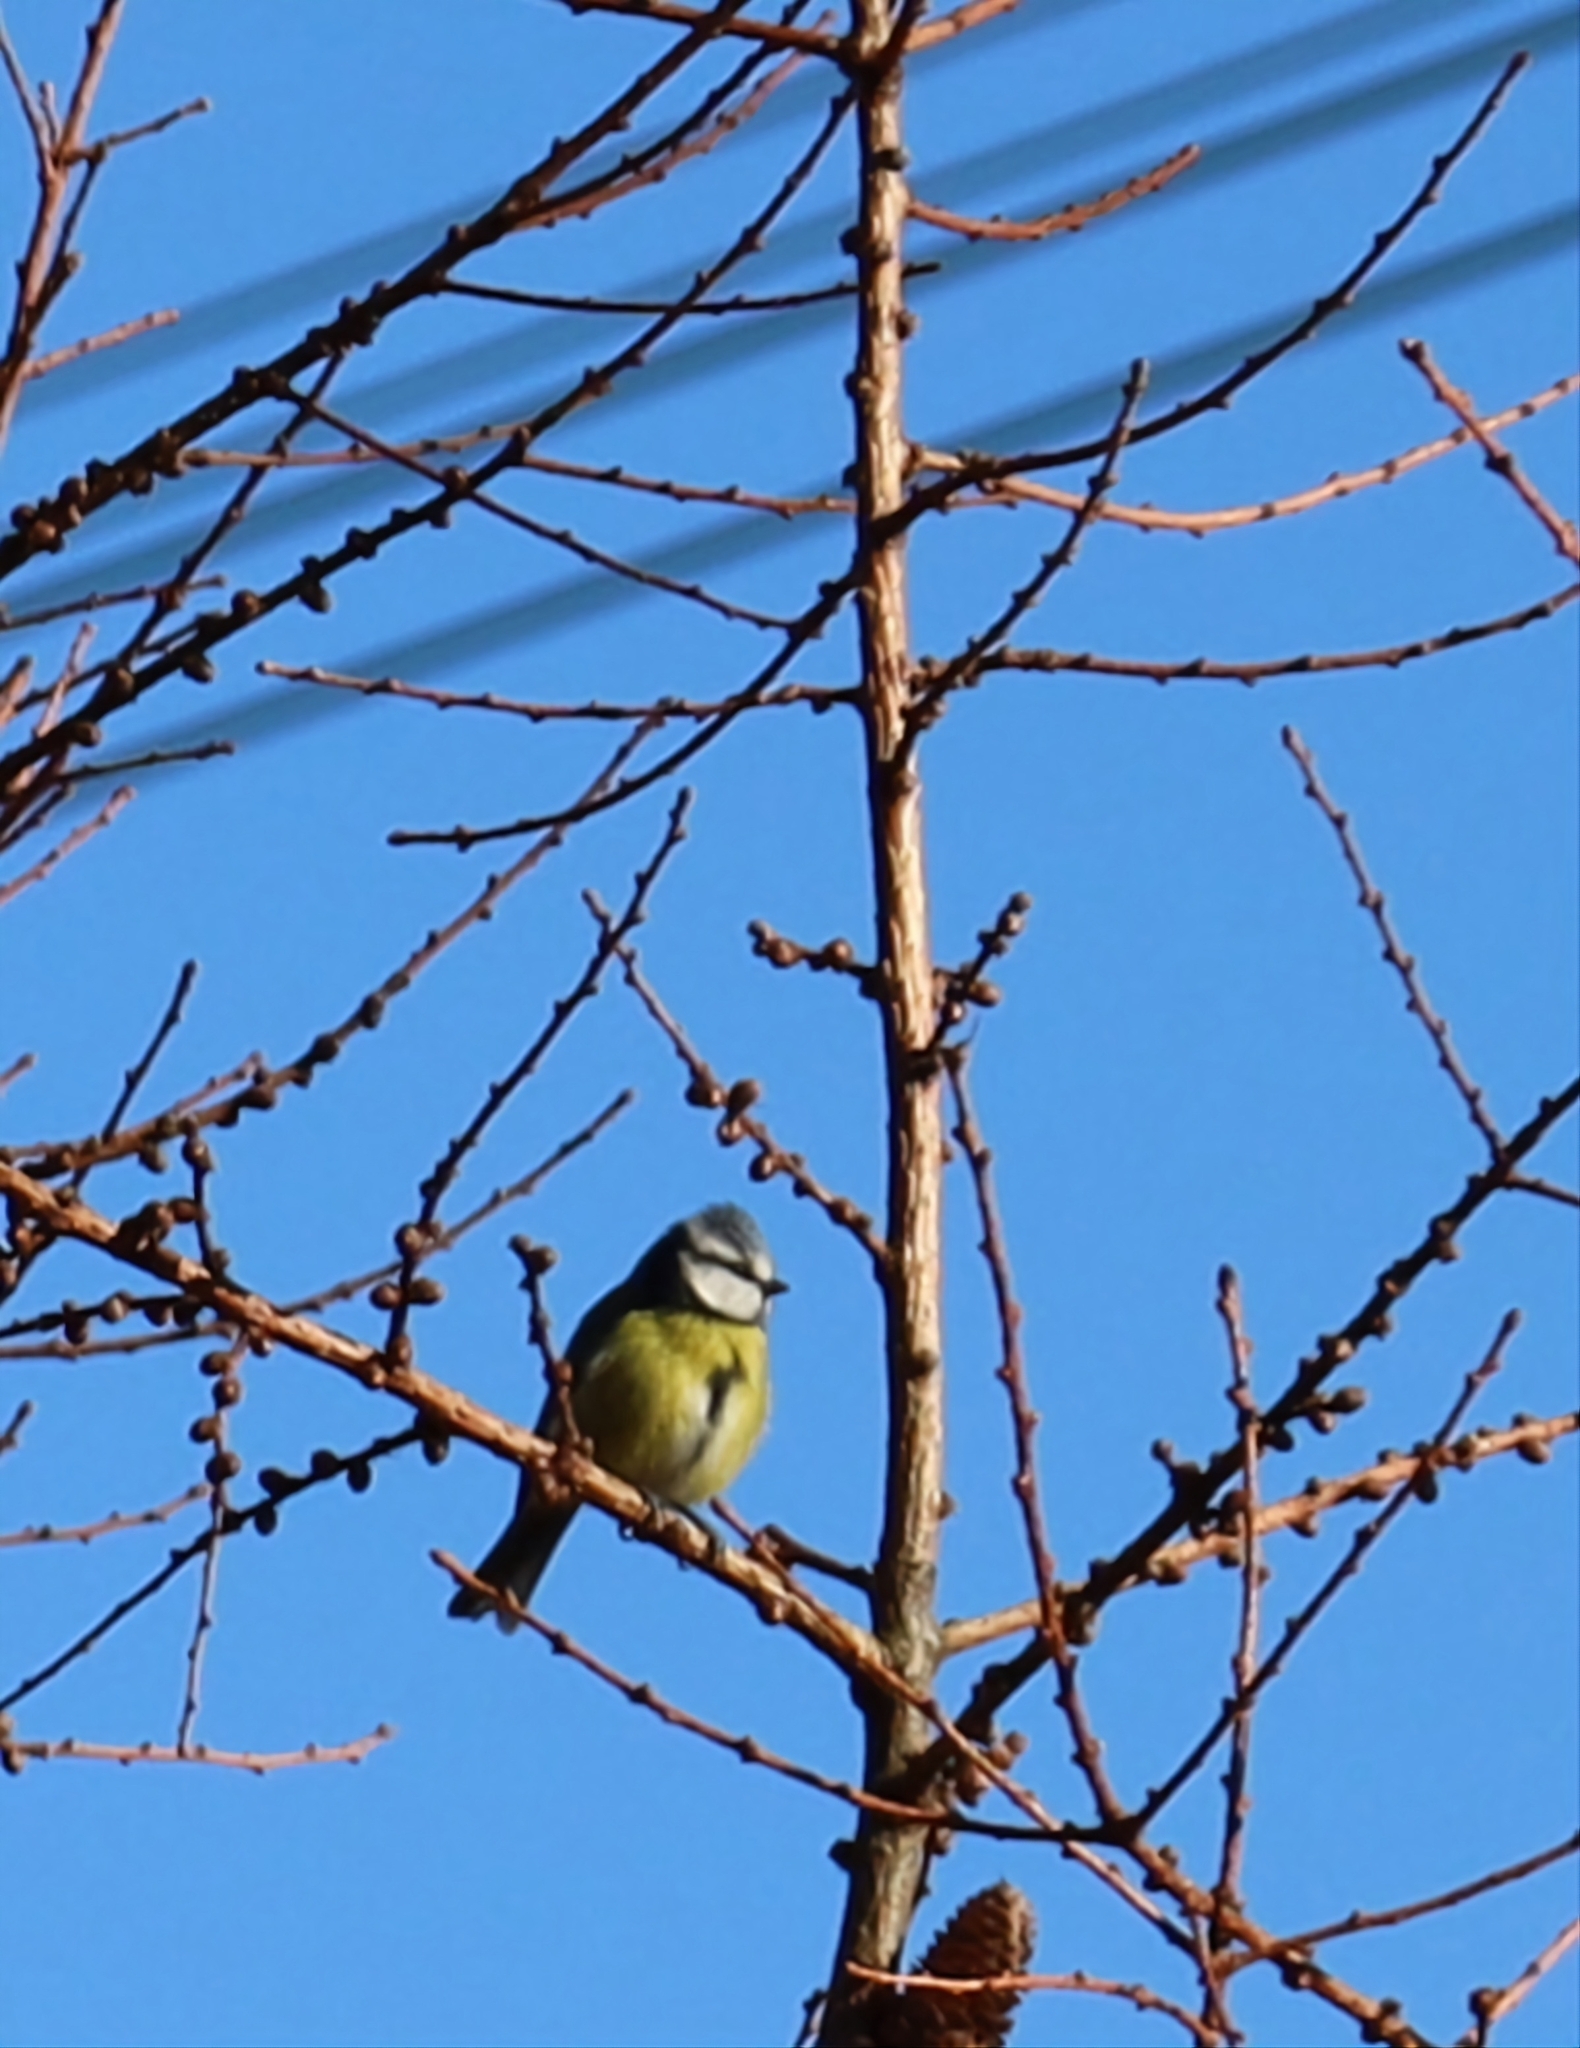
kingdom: Animalia
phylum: Chordata
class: Aves
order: Passeriformes
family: Paridae
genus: Cyanistes
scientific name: Cyanistes caeruleus
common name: Eurasian blue tit
